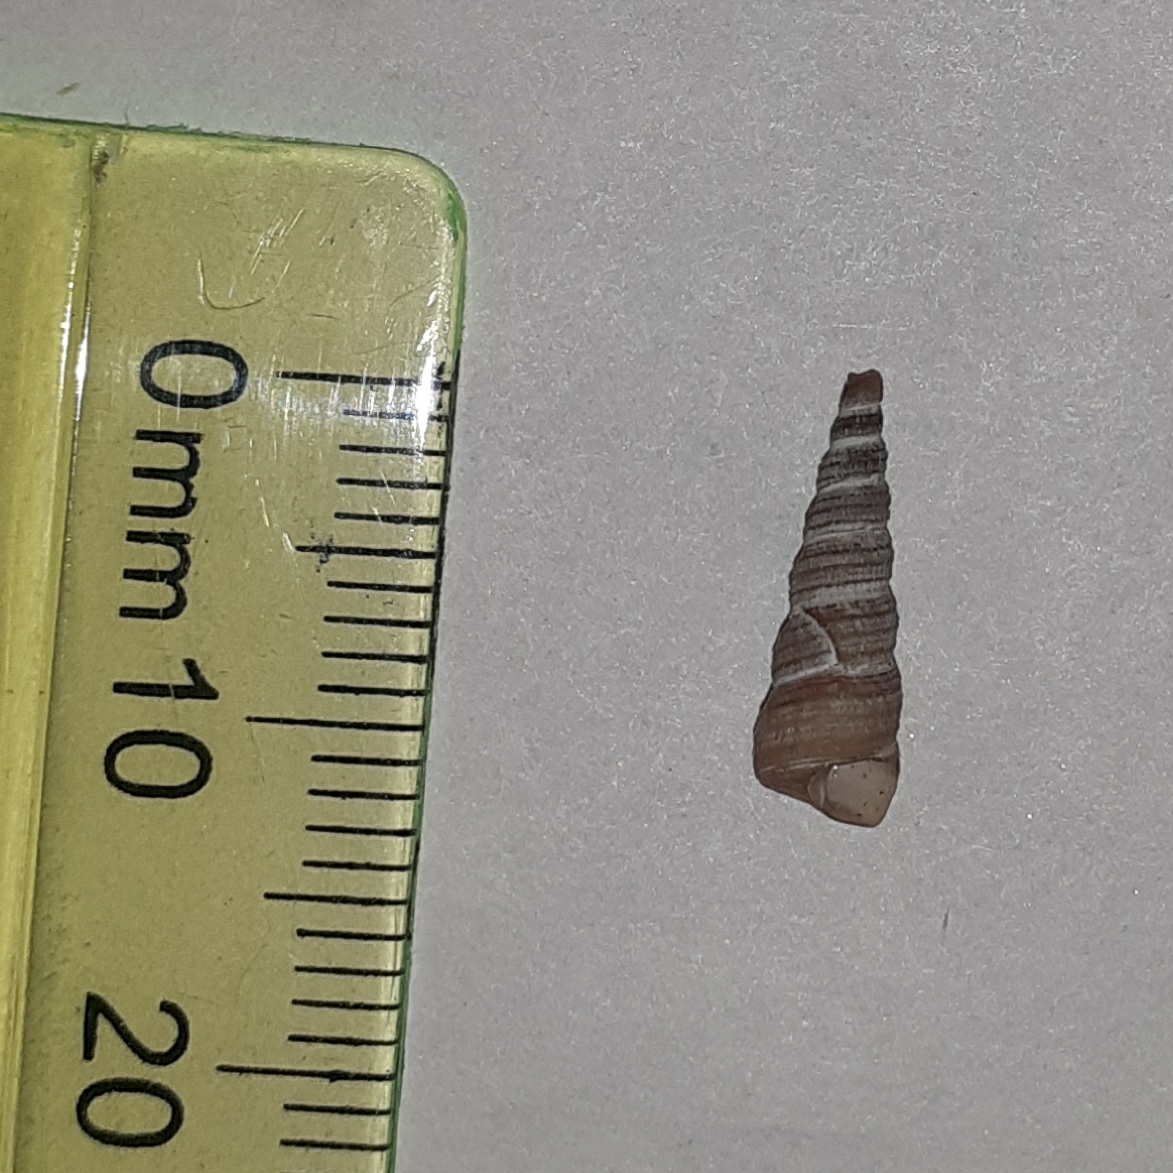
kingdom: Animalia
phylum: Mollusca
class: Gastropoda
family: Turritellidae
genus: Turritellinella
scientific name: Turritellinella tricarinata
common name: Auger shell
